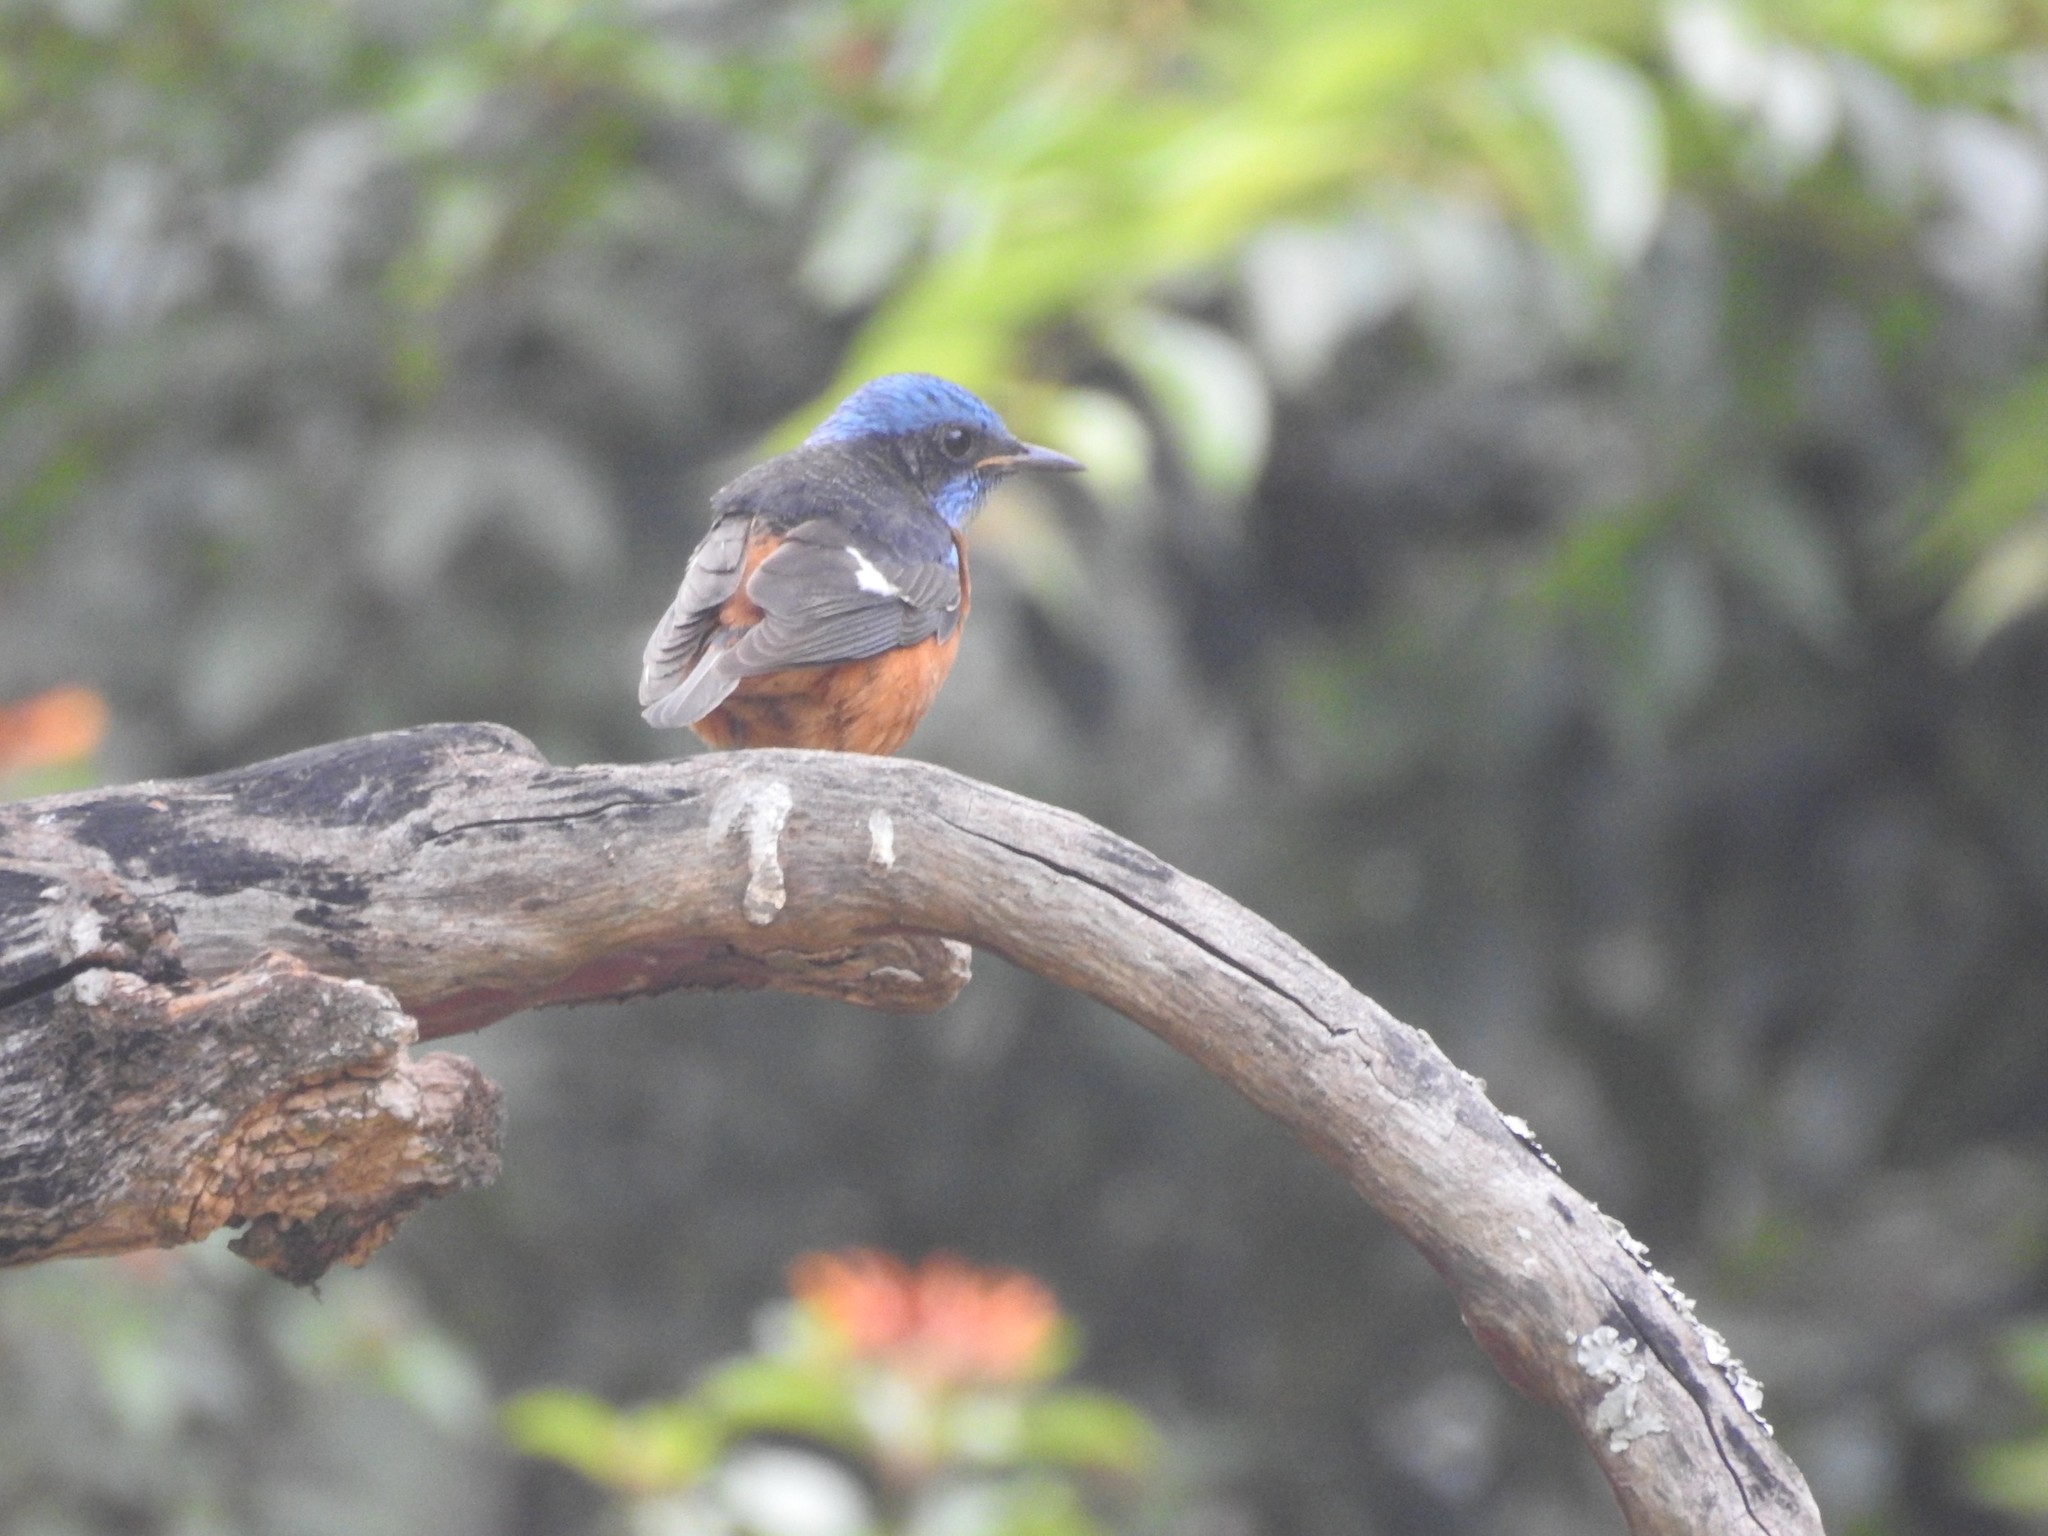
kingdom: Animalia
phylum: Chordata
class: Aves
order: Passeriformes
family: Muscicapidae
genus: Monticola
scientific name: Monticola cinclorhynchus
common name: Blue-capped rock thrush
